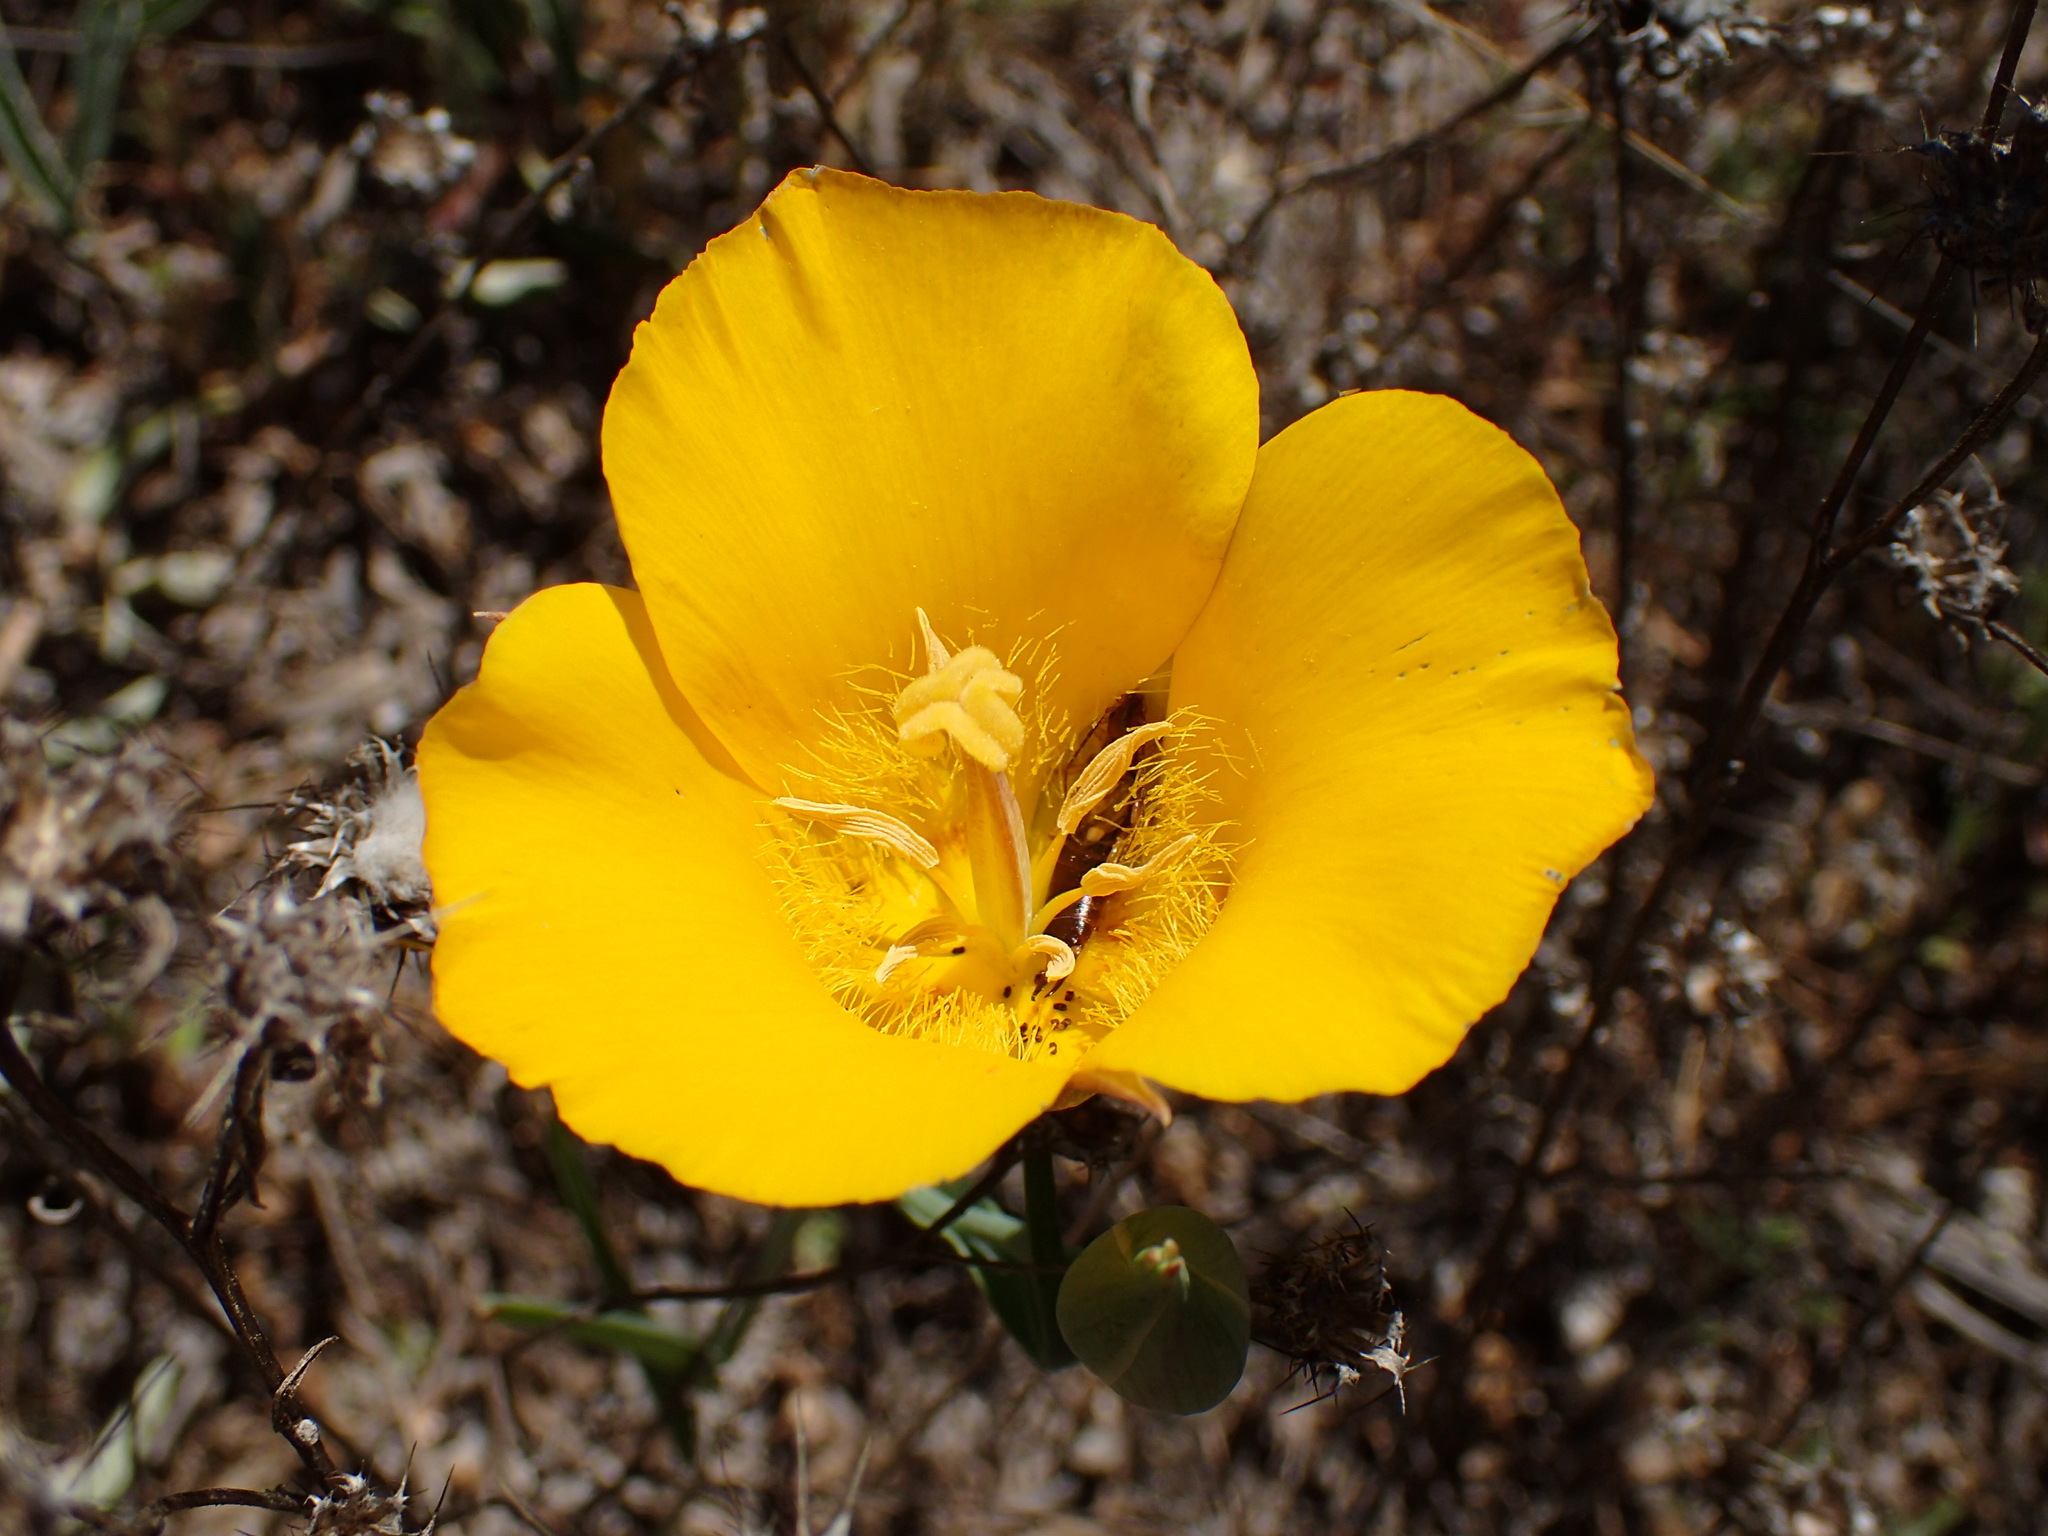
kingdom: Plantae
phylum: Tracheophyta
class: Liliopsida
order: Liliales
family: Liliaceae
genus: Calochortus
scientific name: Calochortus clavatus
